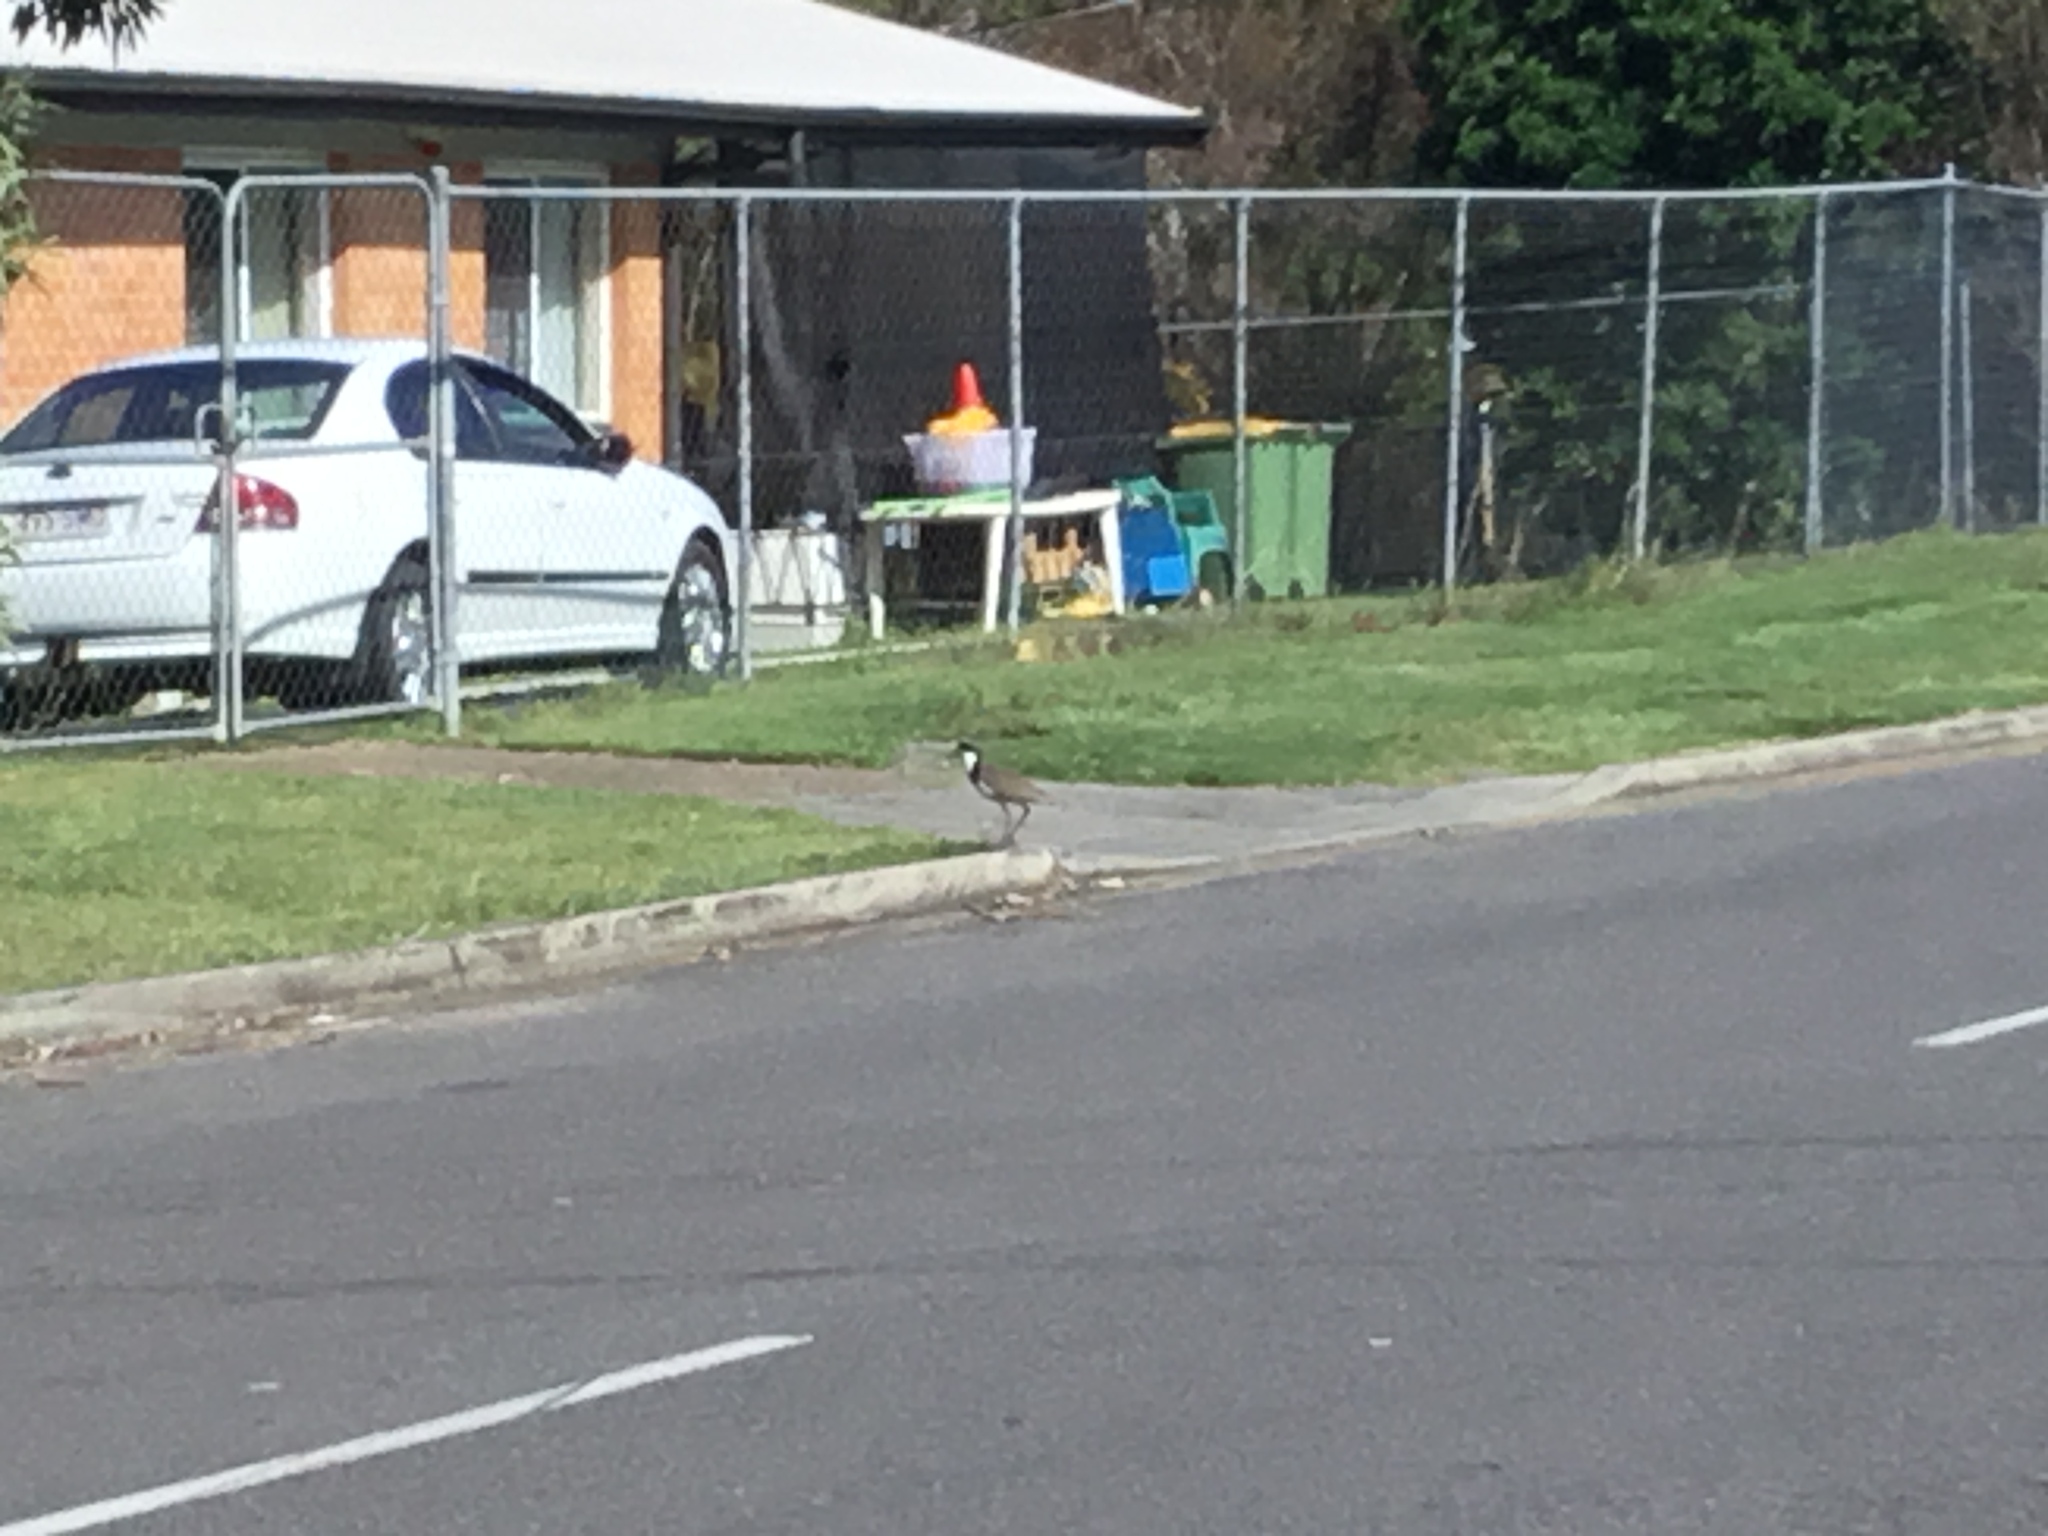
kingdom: Animalia
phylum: Chordata
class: Aves
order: Charadriiformes
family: Charadriidae
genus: Vanellus
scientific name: Vanellus miles
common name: Masked lapwing
